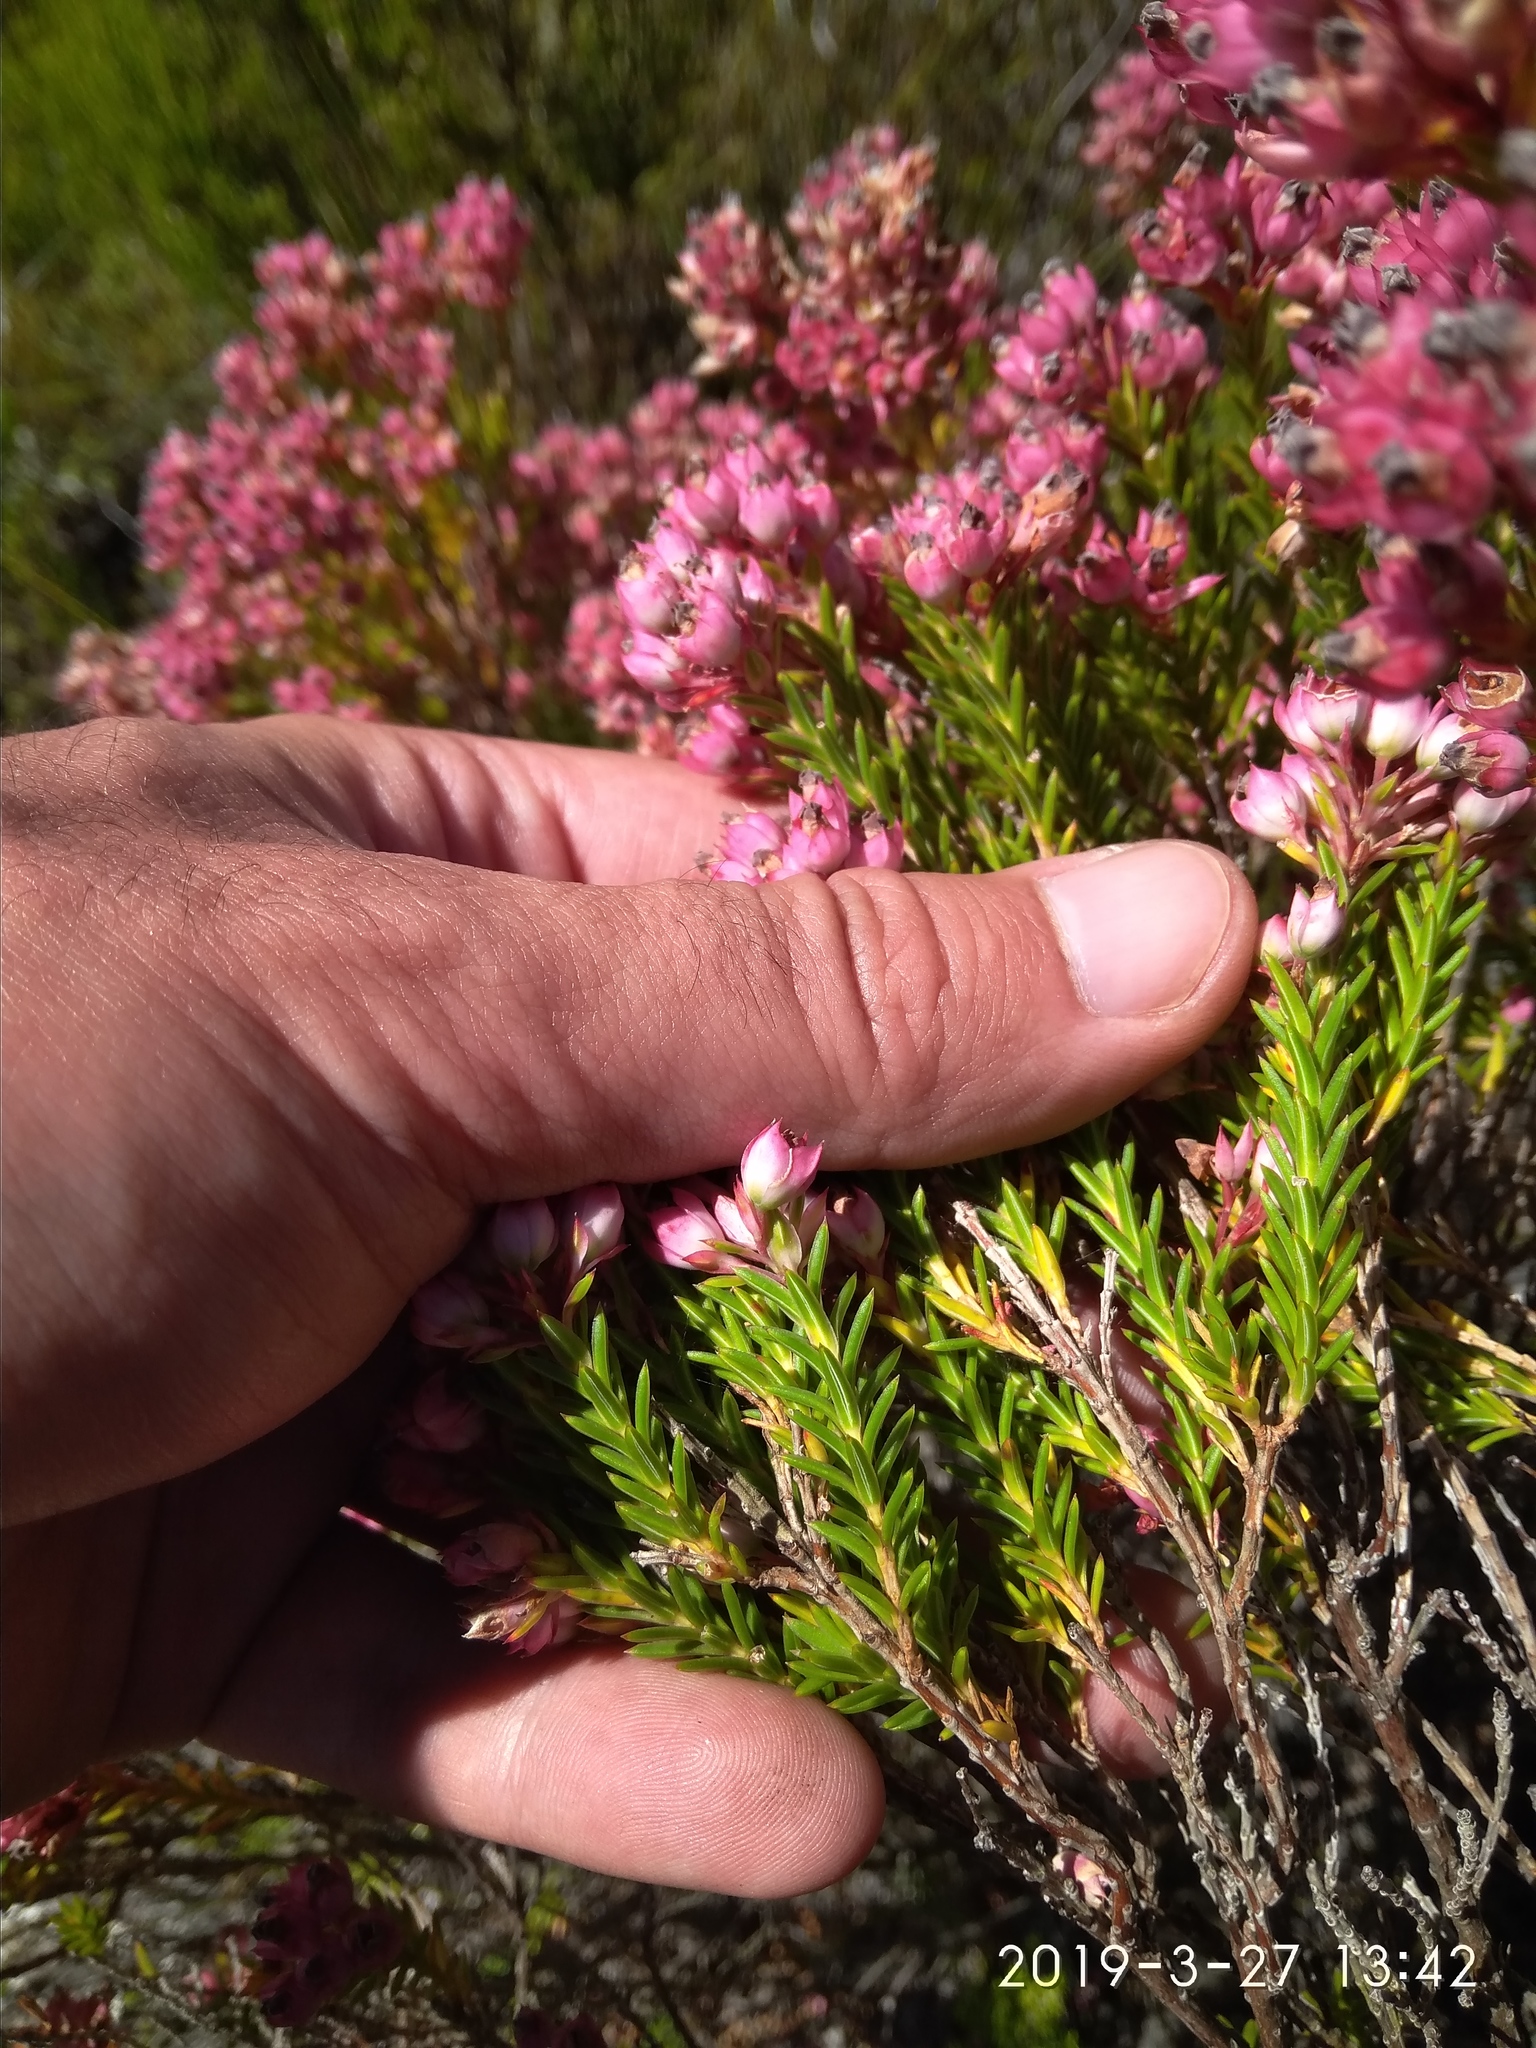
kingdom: Plantae
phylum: Tracheophyta
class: Magnoliopsida
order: Ericales
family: Ericaceae
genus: Erica
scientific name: Erica taxifolia
